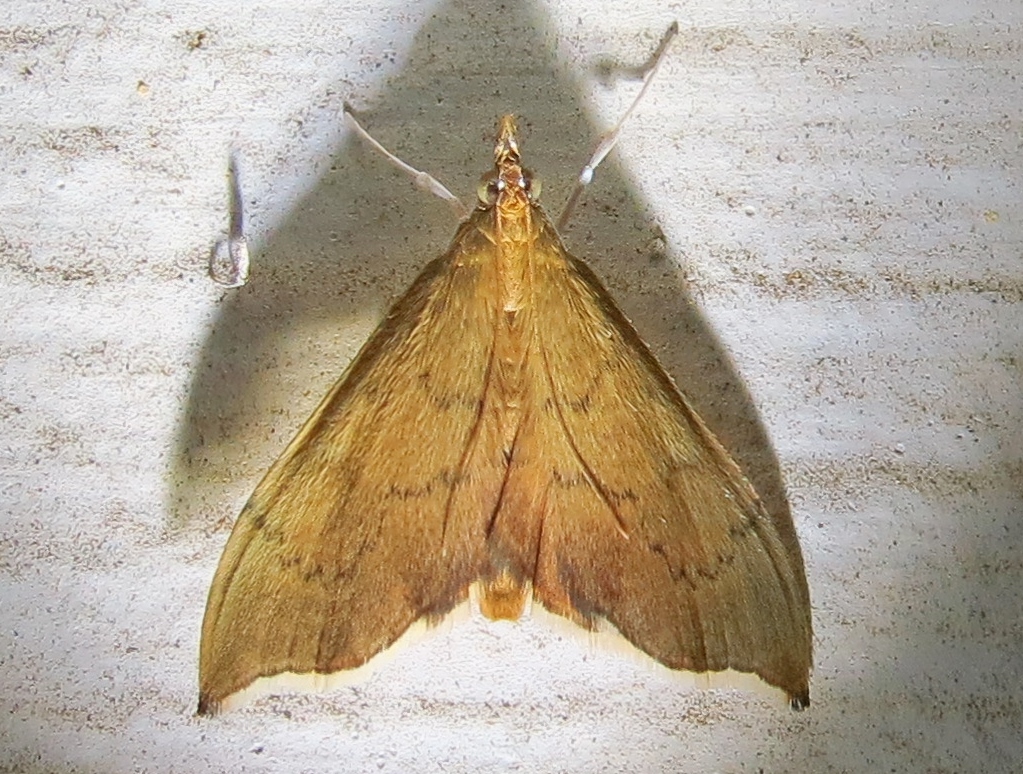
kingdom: Animalia
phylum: Arthropoda
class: Insecta
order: Lepidoptera
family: Crambidae
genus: Sericoplaga
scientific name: Sericoplaga externalis
